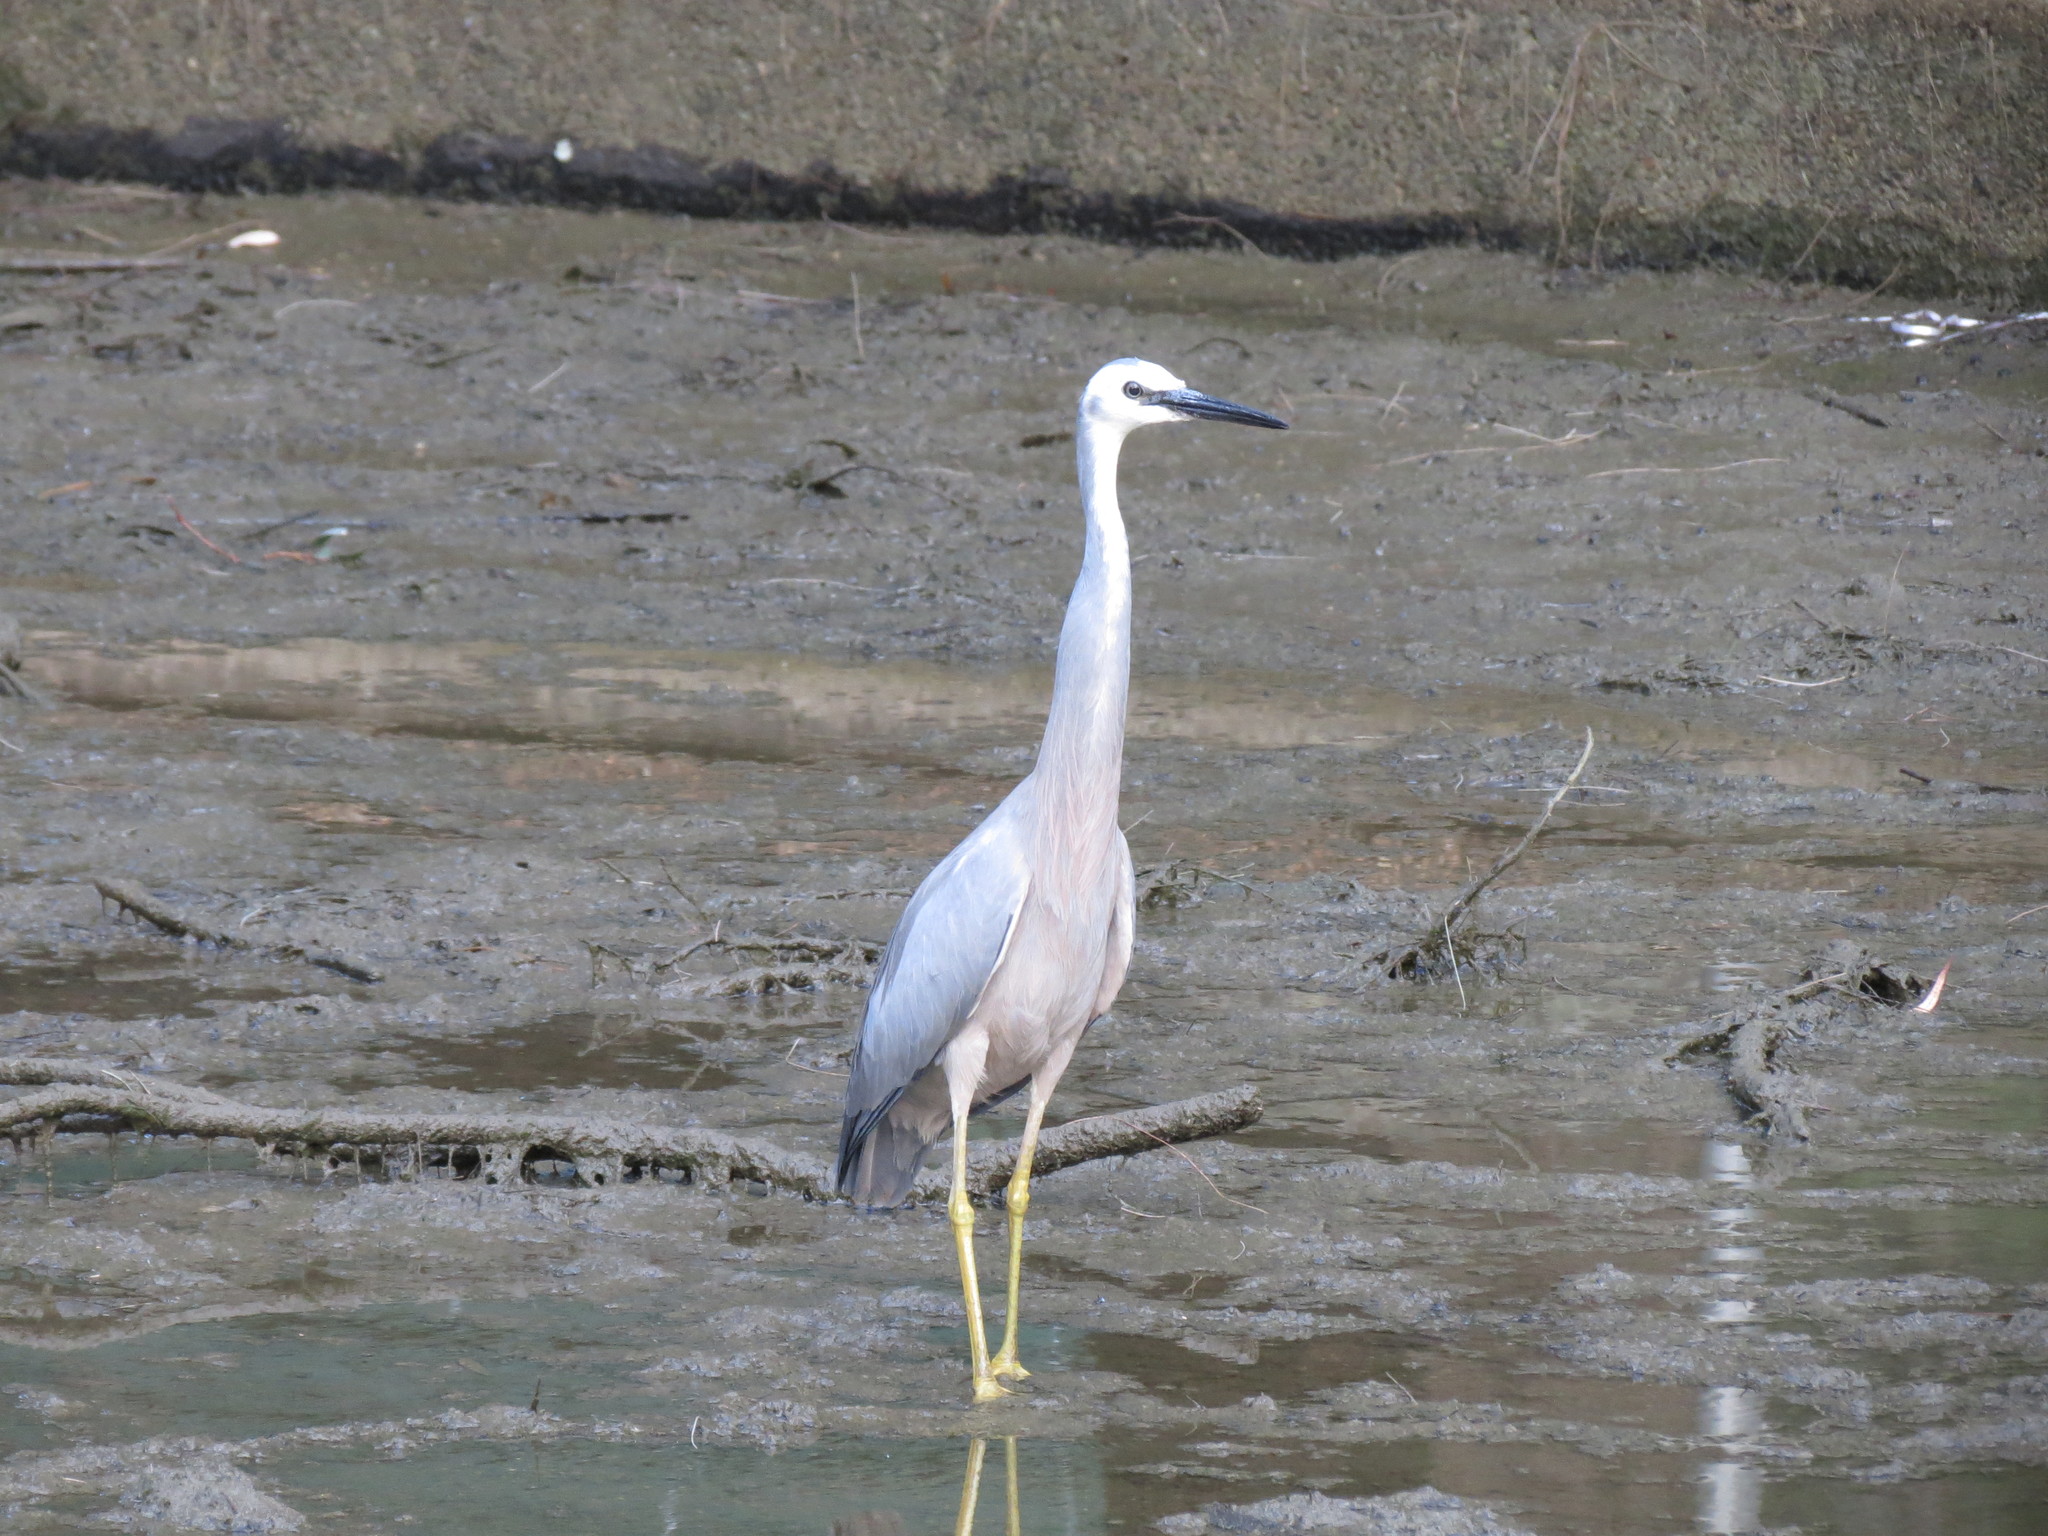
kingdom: Animalia
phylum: Chordata
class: Aves
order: Pelecaniformes
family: Ardeidae
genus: Egretta
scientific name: Egretta novaehollandiae
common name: White-faced heron
